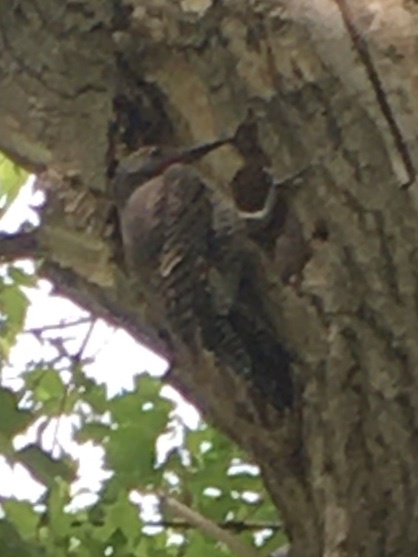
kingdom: Animalia
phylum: Chordata
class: Aves
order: Piciformes
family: Picidae
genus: Colaptes
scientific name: Colaptes auratus
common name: Northern flicker
